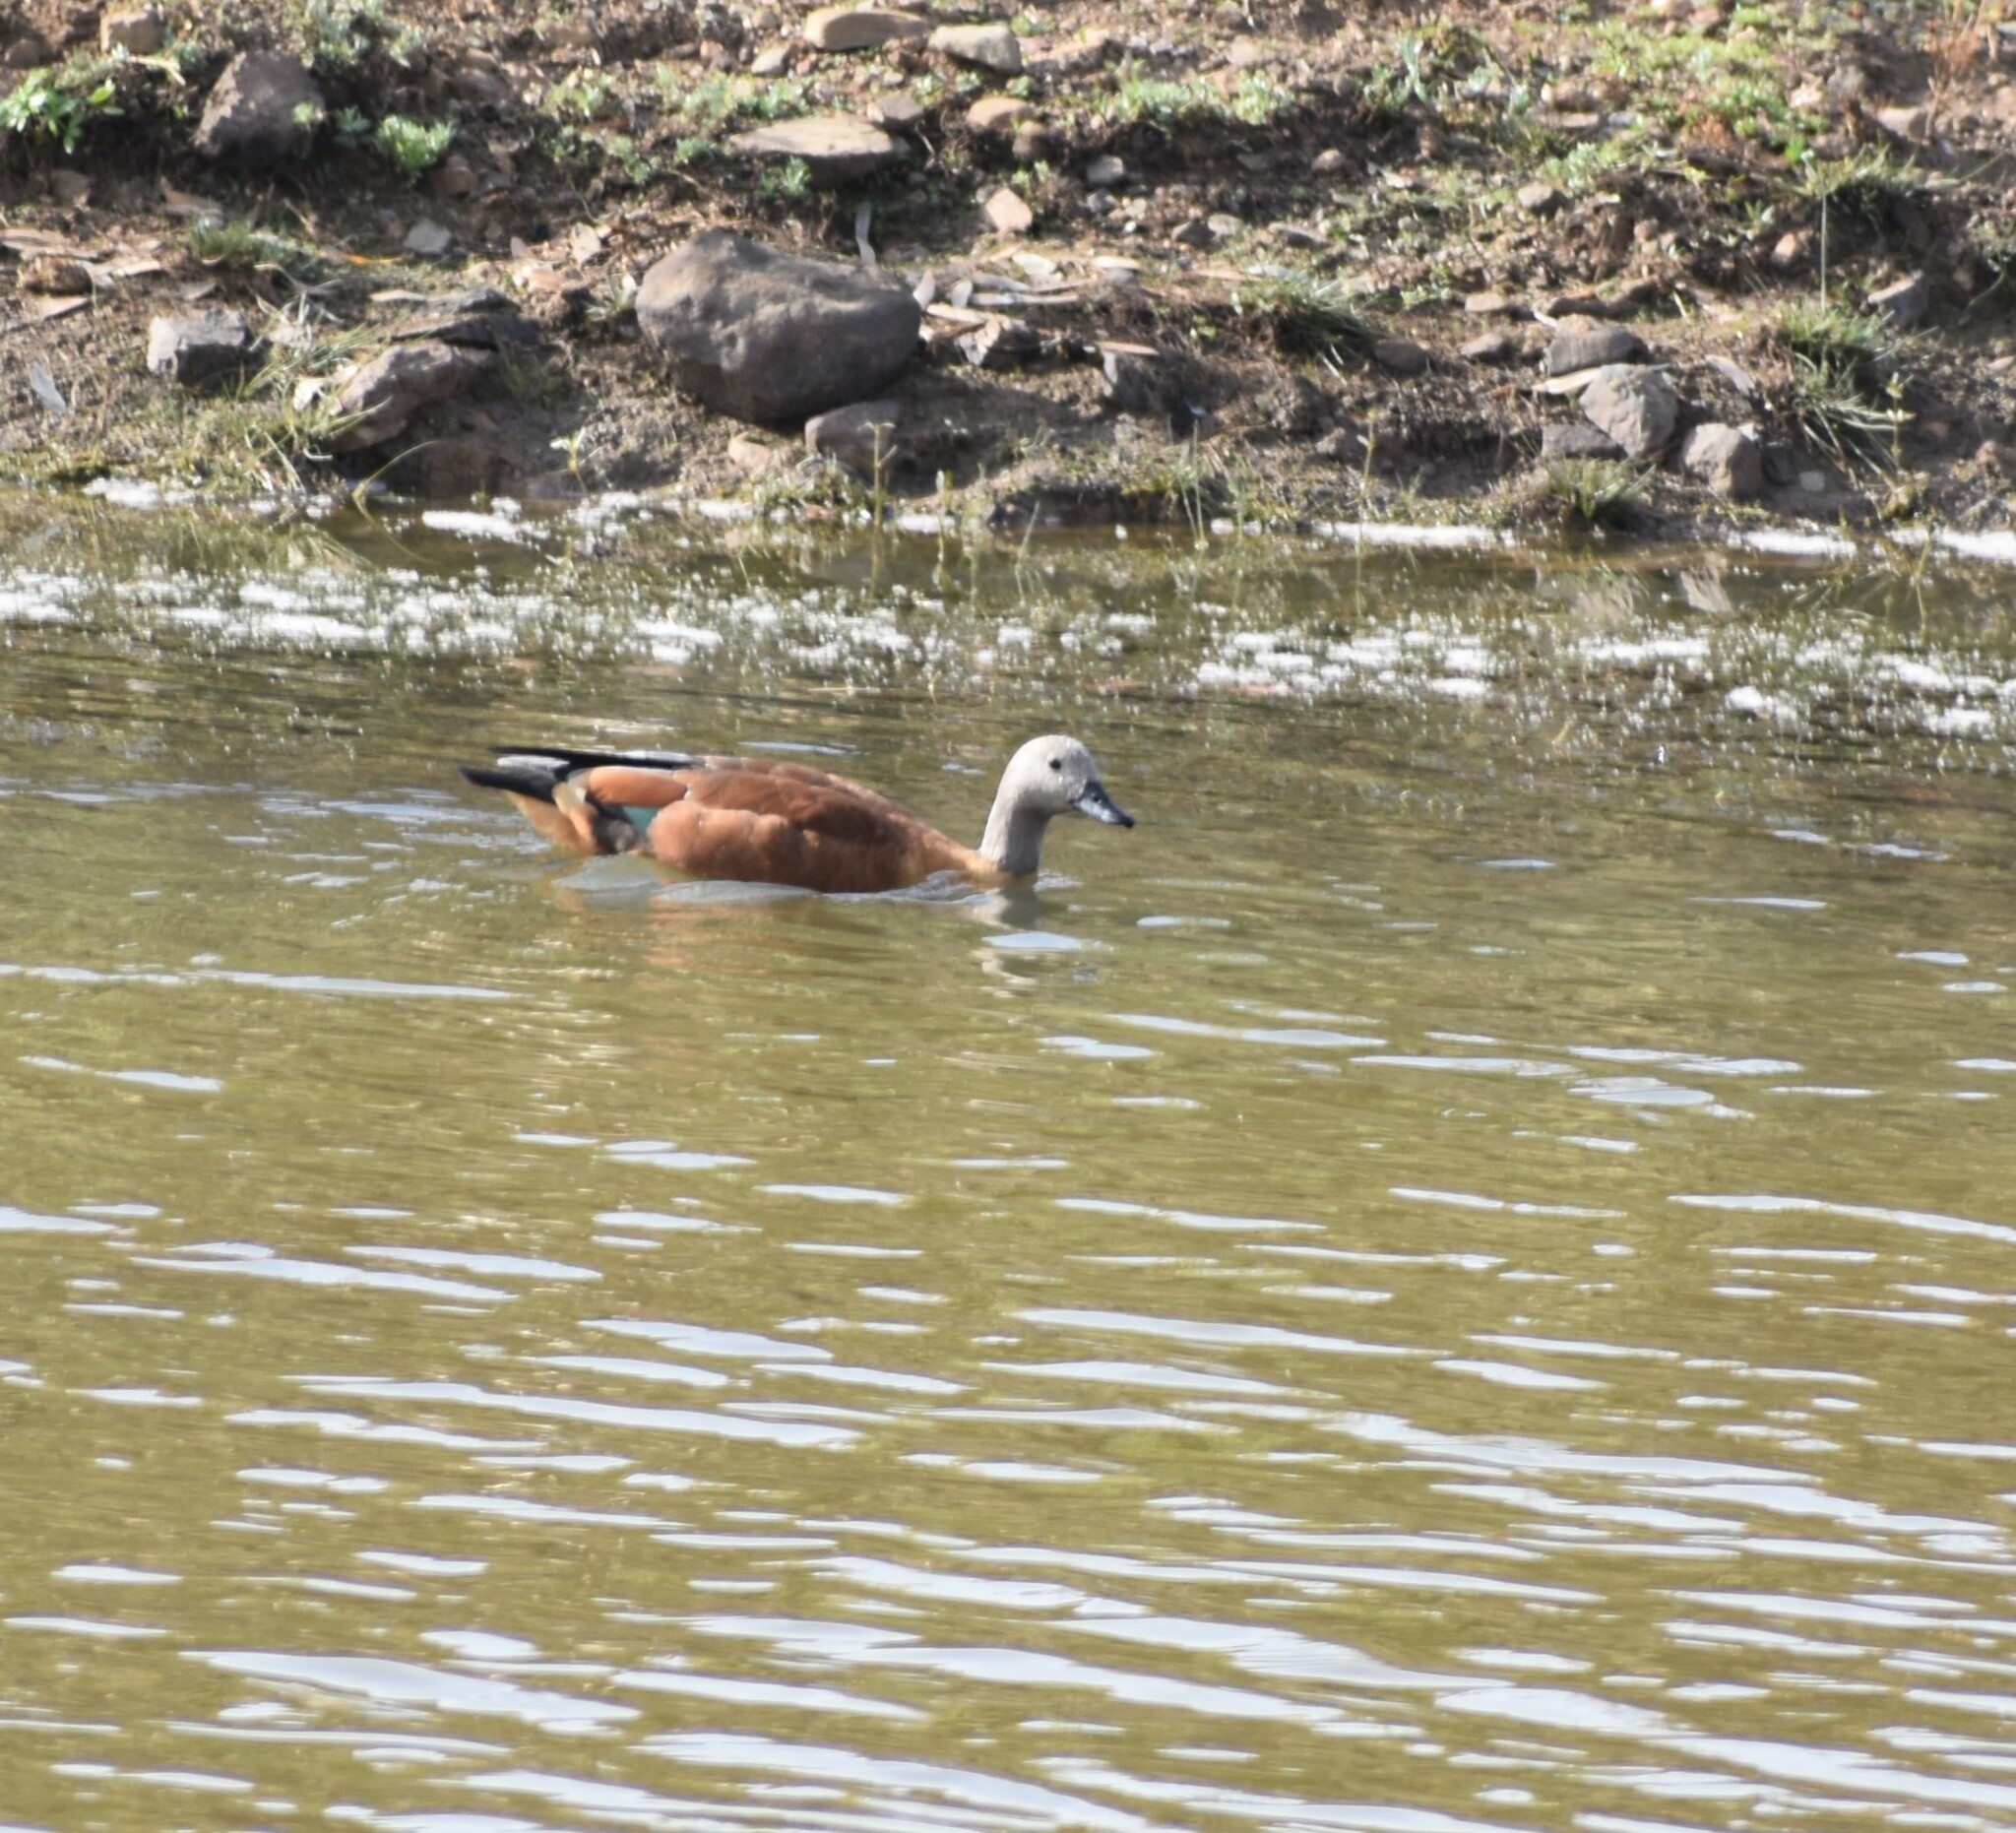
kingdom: Animalia
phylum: Chordata
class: Aves
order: Anseriformes
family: Anatidae
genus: Tadorna
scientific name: Tadorna cana
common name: South african shelduck
